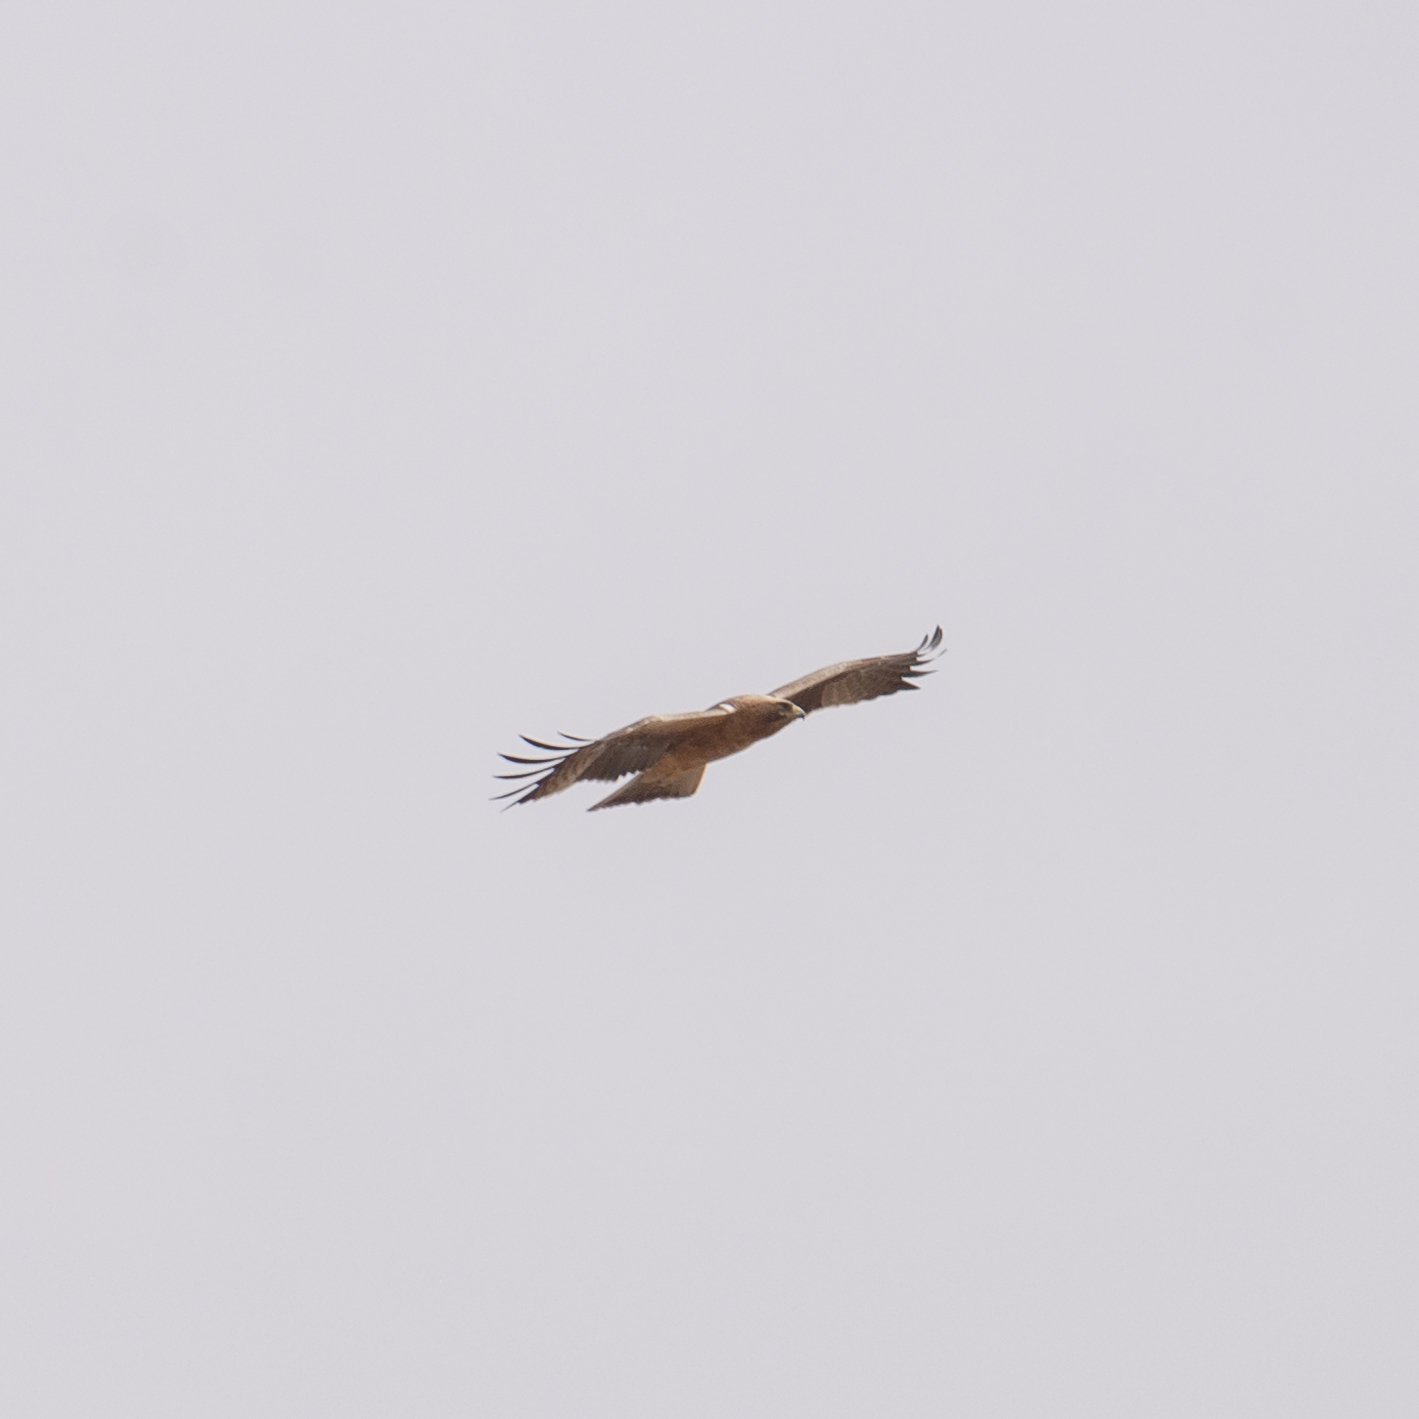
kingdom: Animalia
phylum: Chordata
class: Aves
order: Accipitriformes
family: Accipitridae
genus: Hieraaetus
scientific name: Hieraaetus pennatus
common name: Booted eagle
